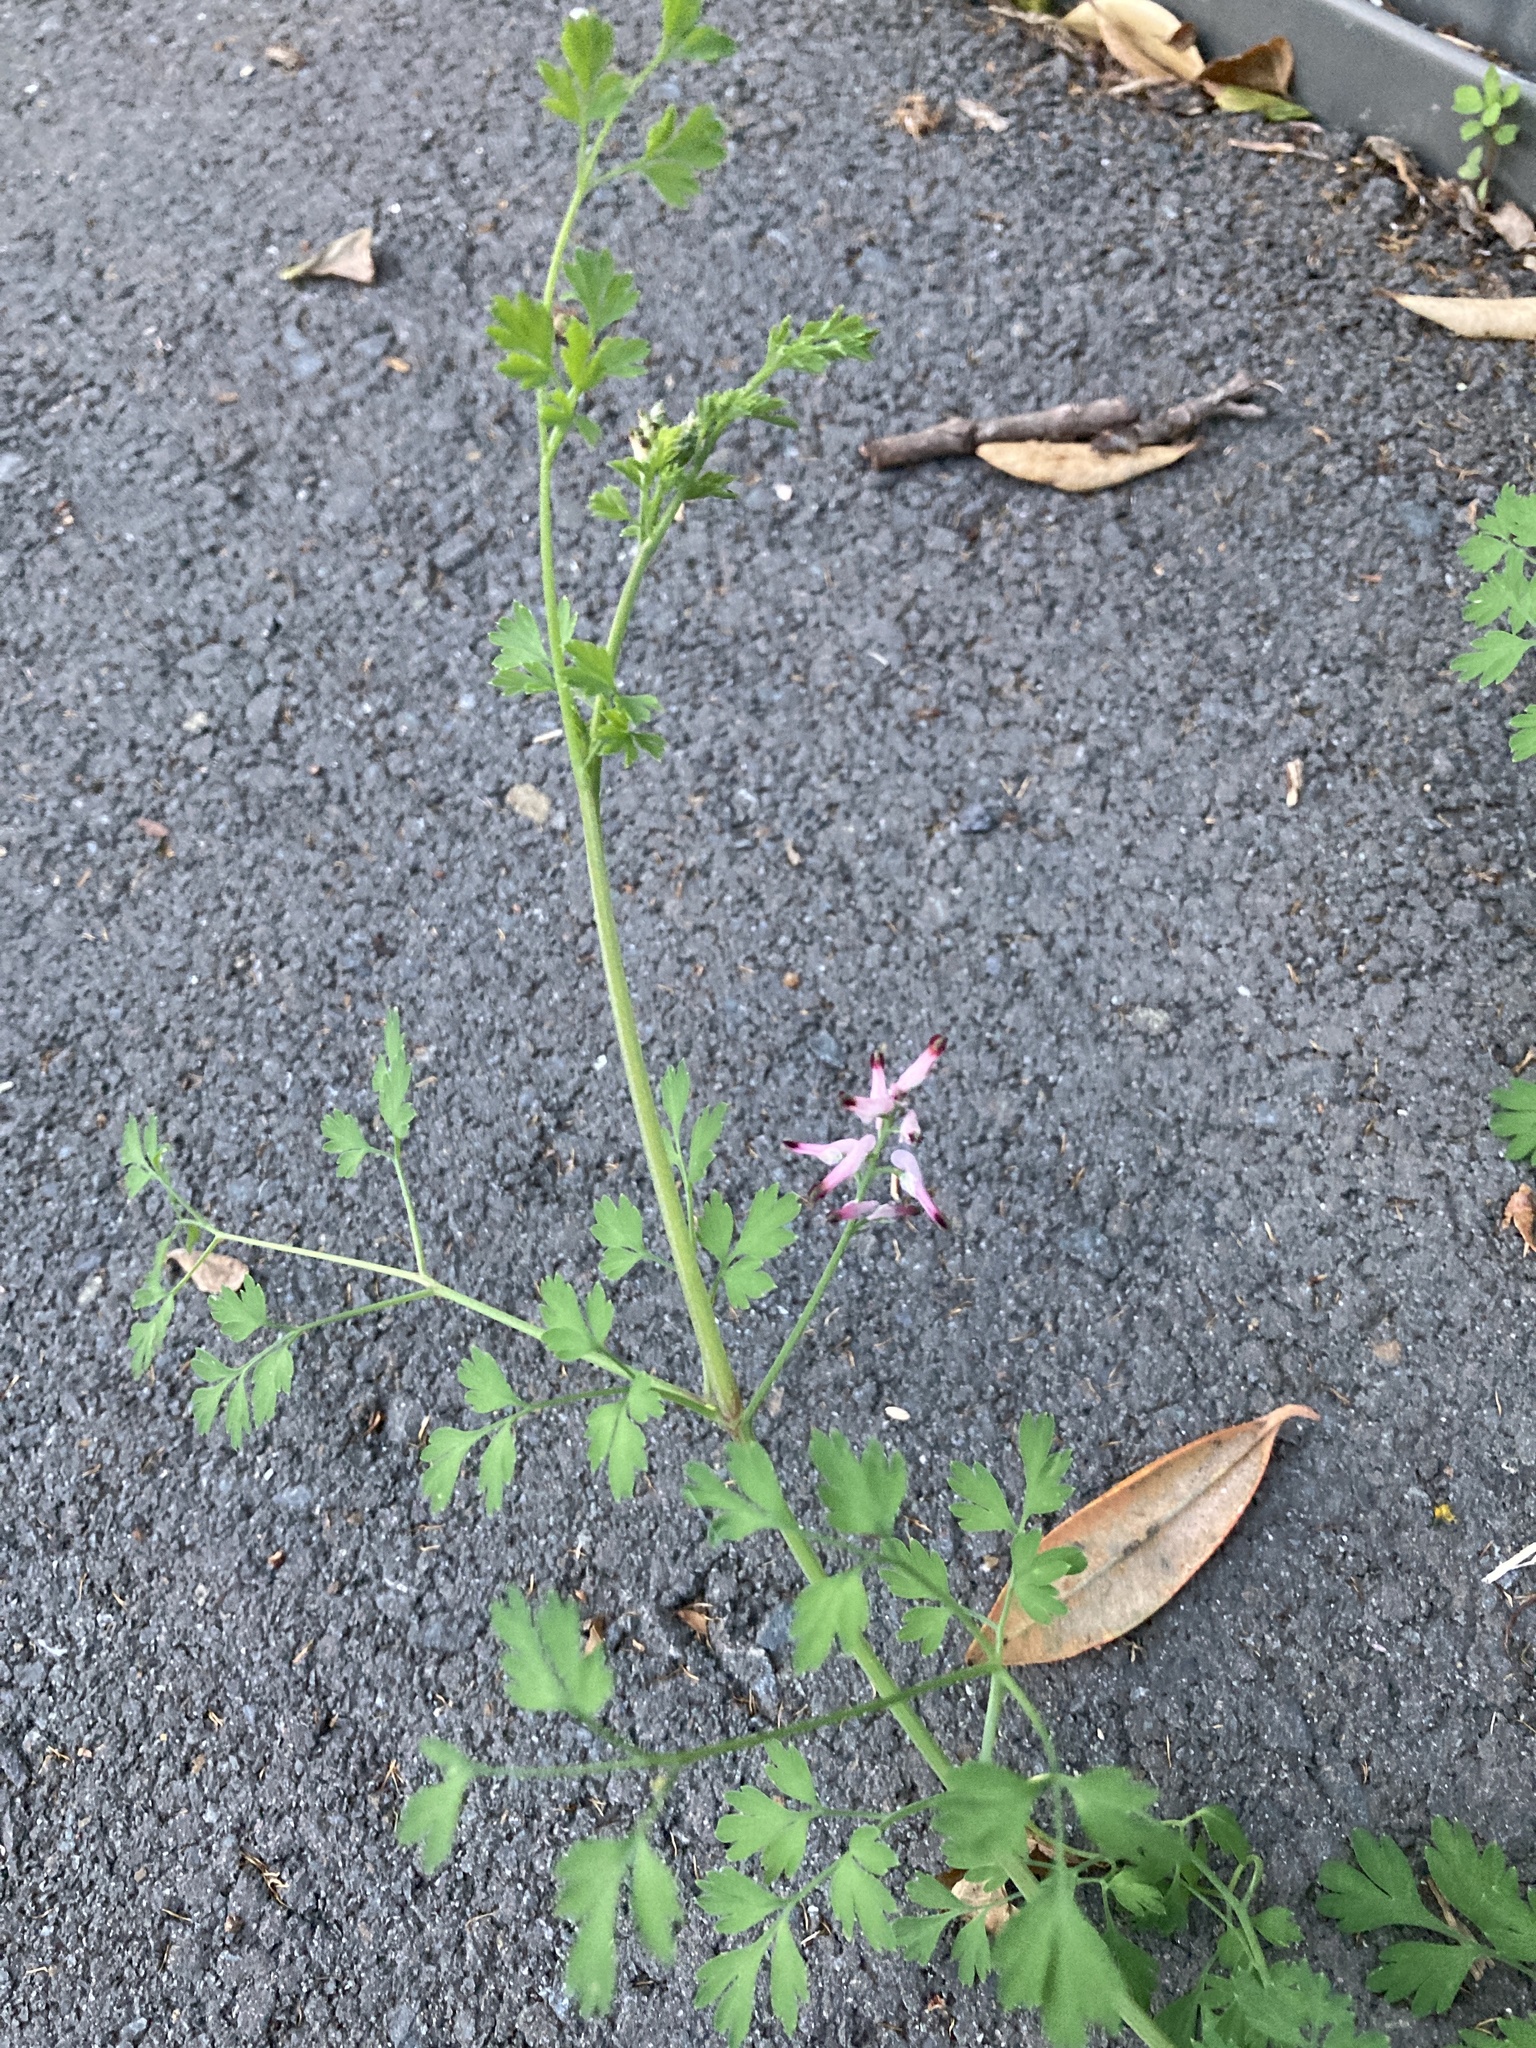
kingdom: Plantae
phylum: Tracheophyta
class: Magnoliopsida
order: Ranunculales
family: Papaveraceae
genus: Fumaria
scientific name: Fumaria muralis
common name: Common ramping-fumitory
